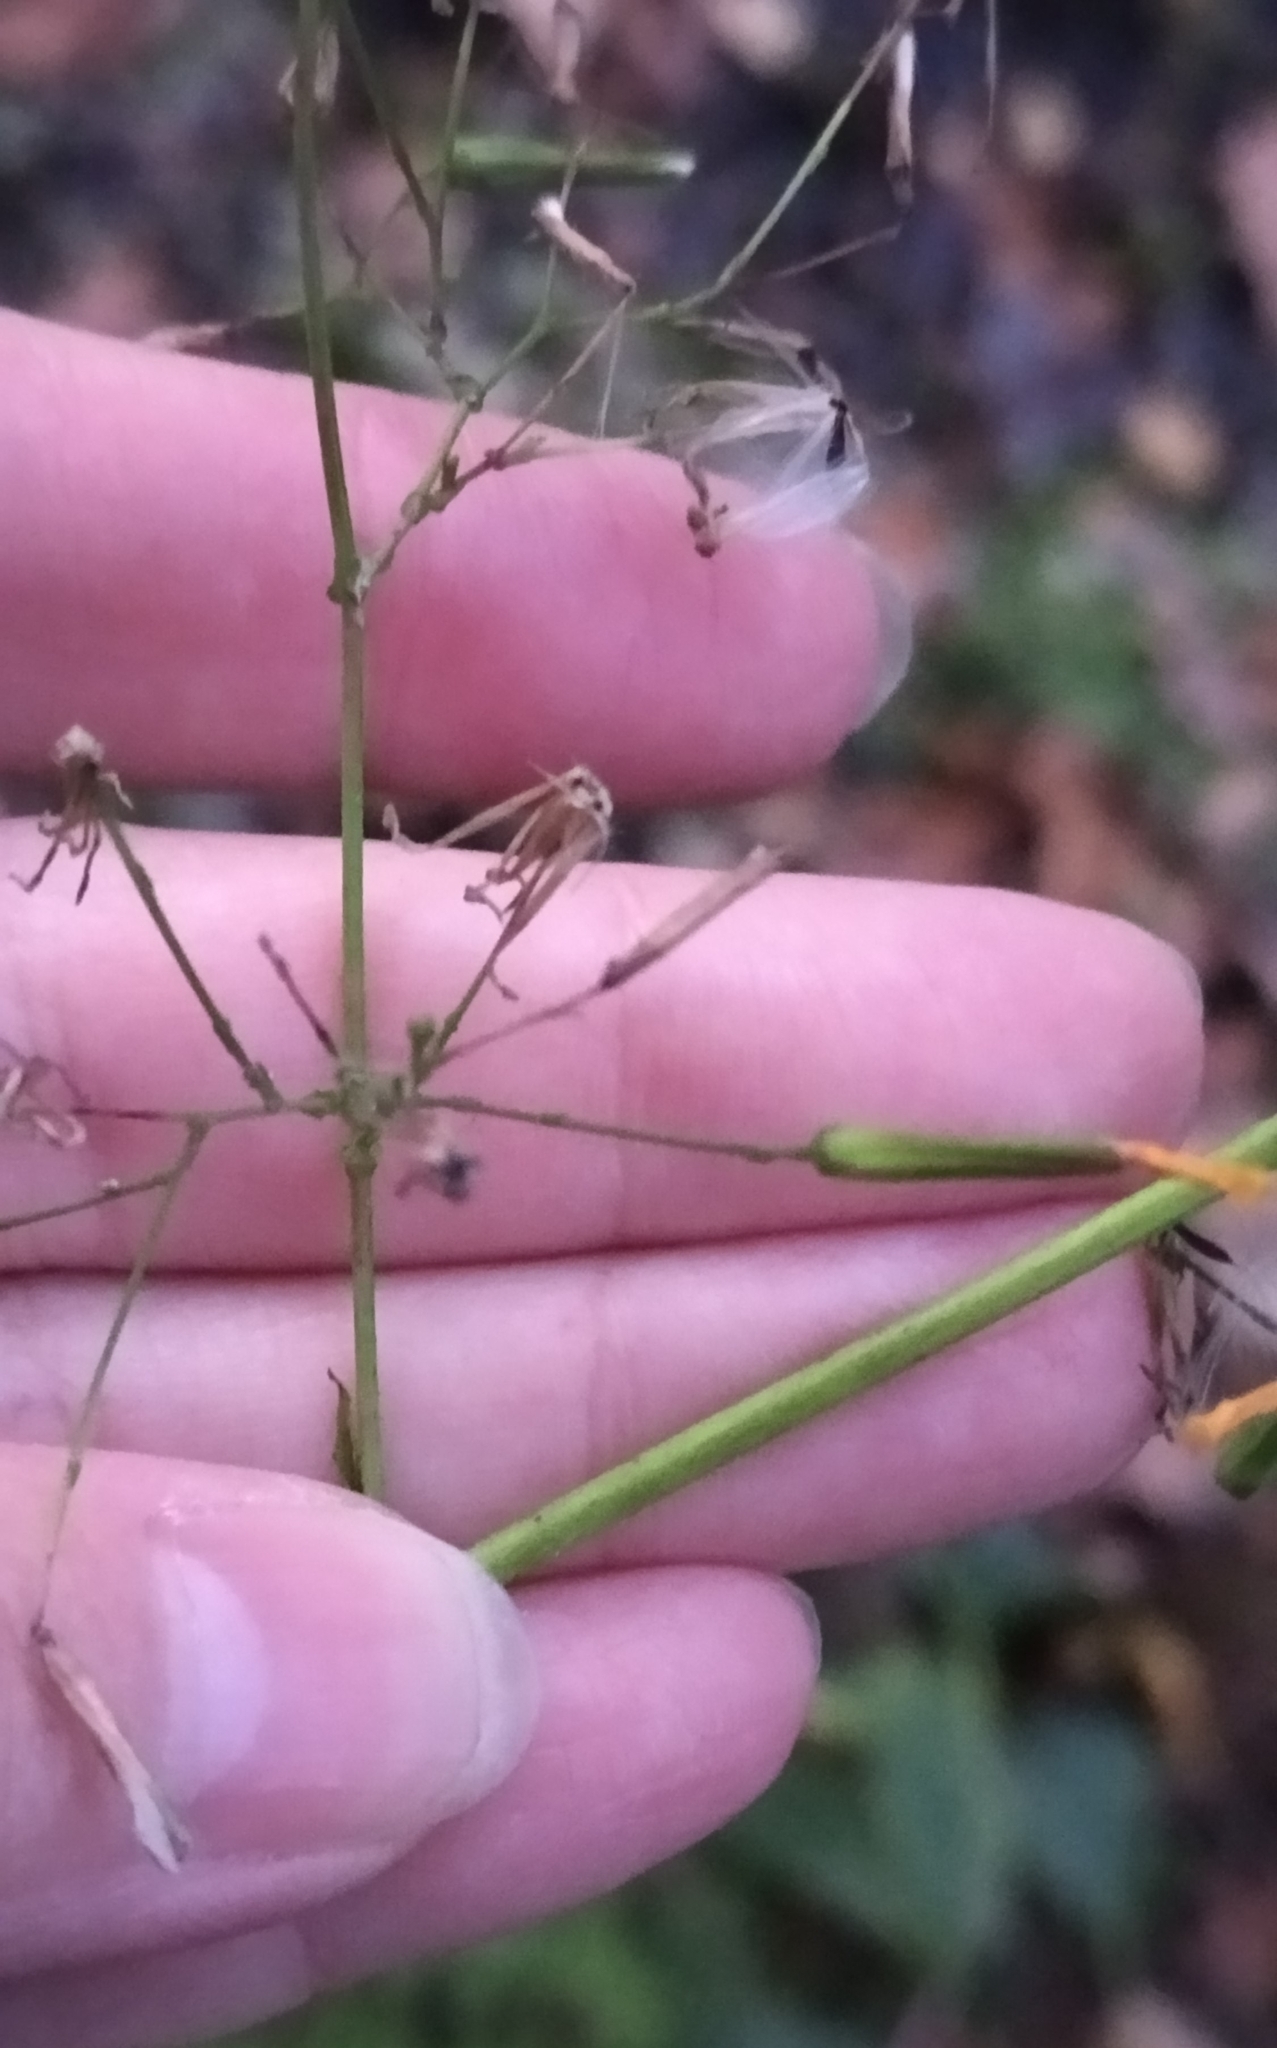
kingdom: Plantae
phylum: Tracheophyta
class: Magnoliopsida
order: Asterales
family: Asteraceae
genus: Mycelis
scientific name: Mycelis muralis
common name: Wall lettuce
